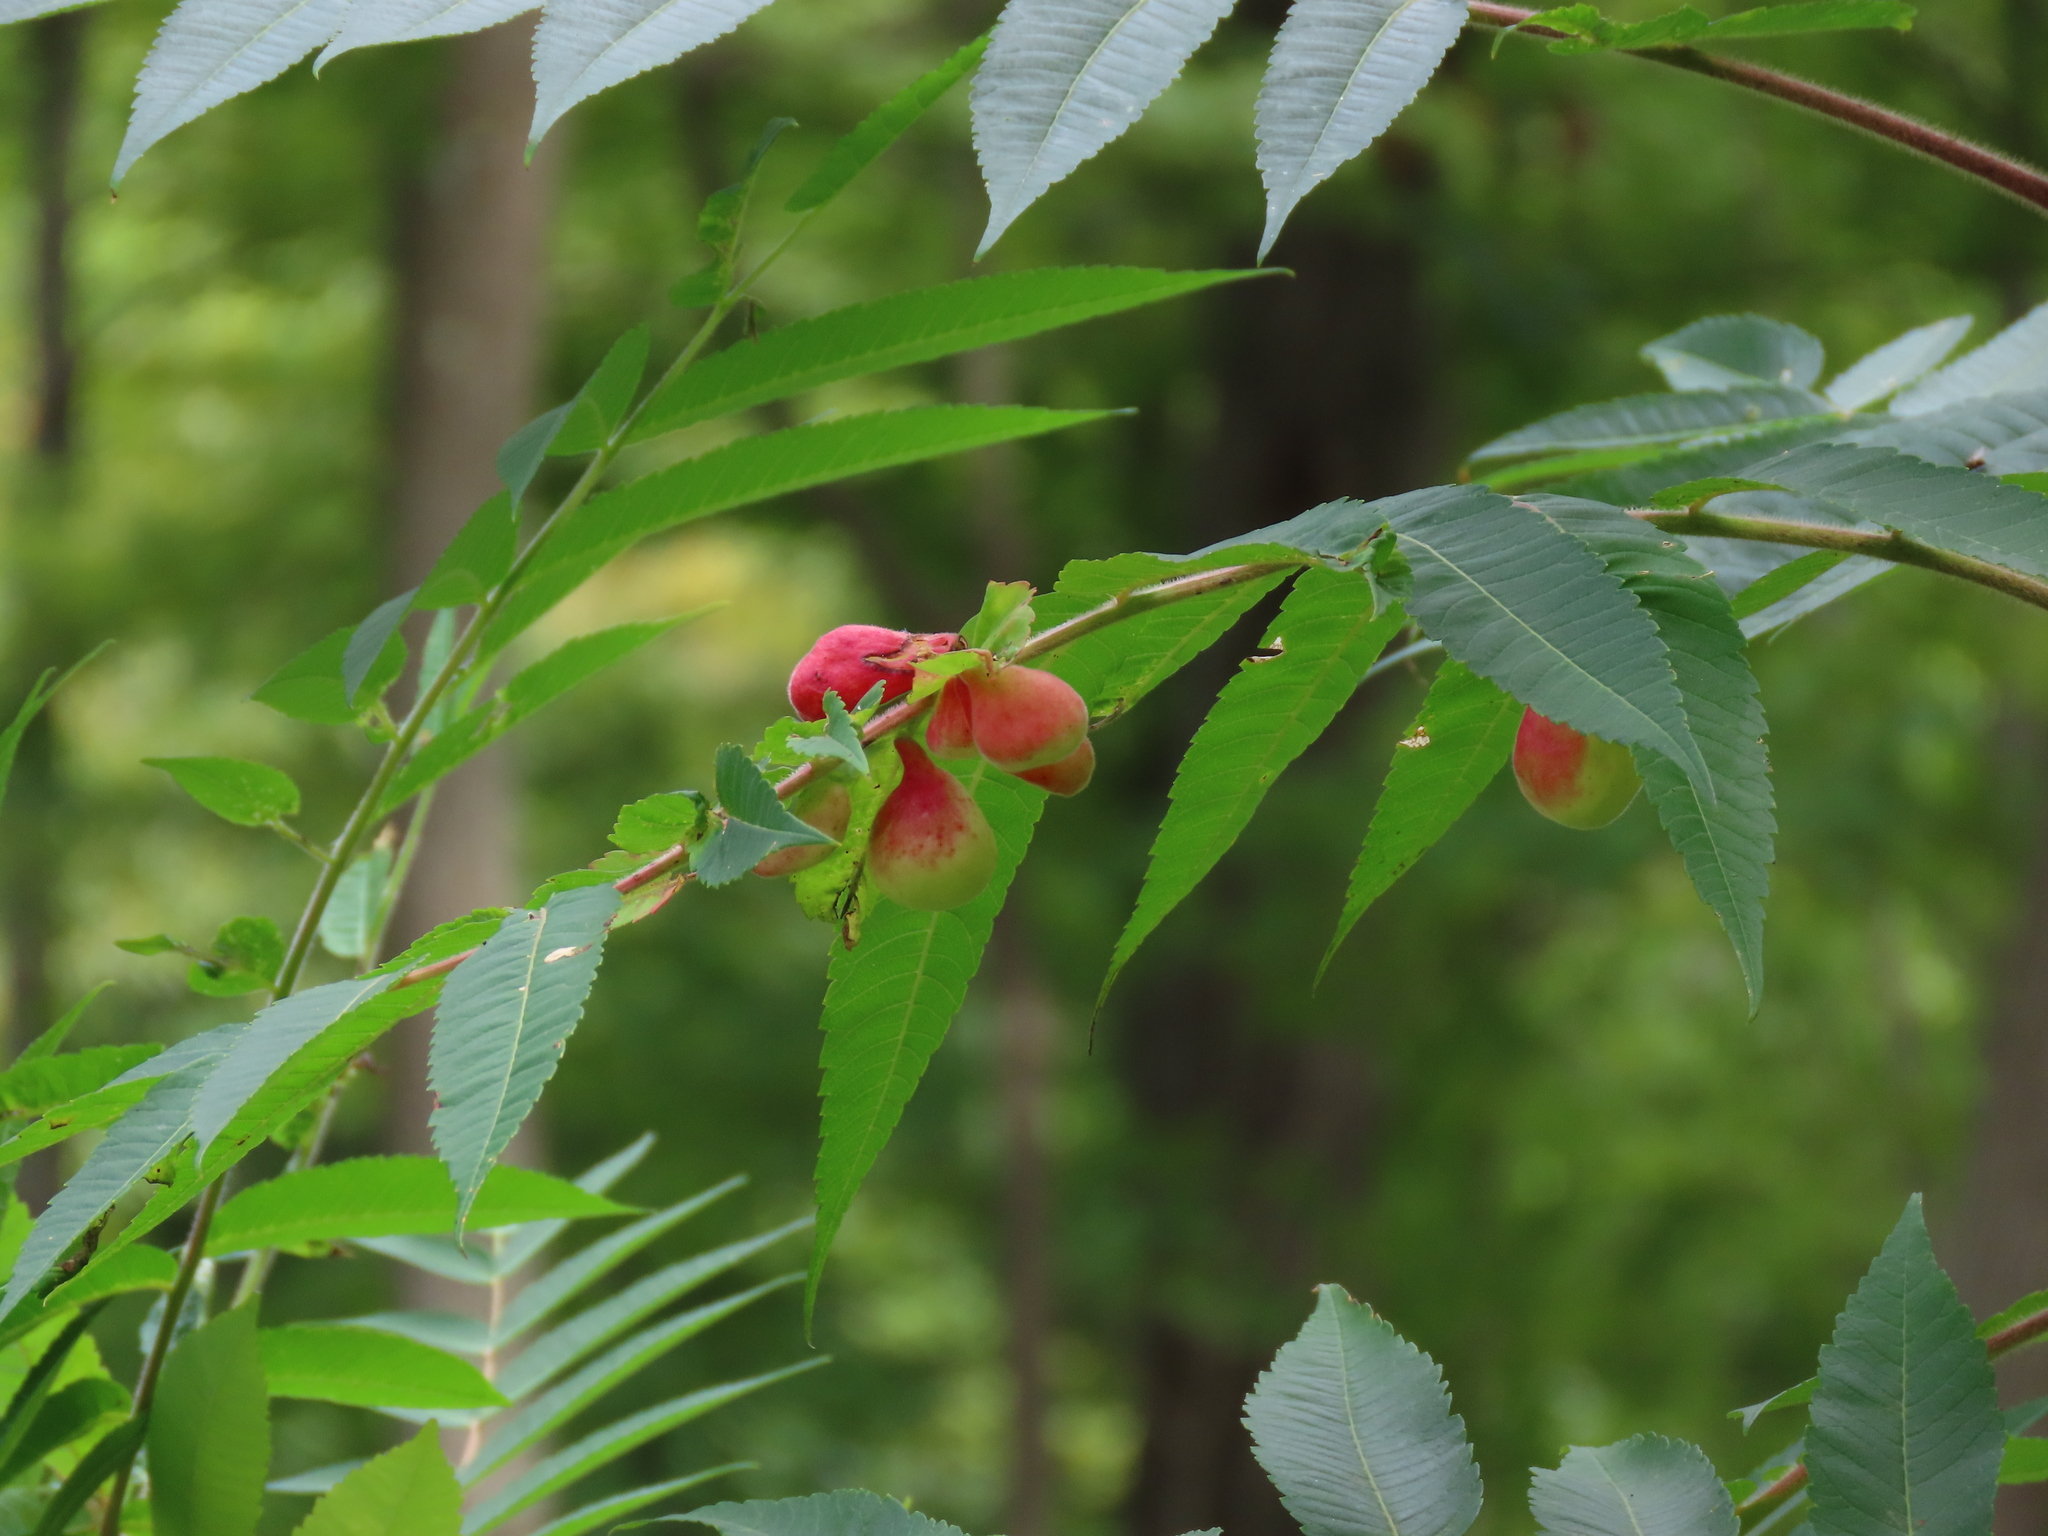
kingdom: Animalia
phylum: Arthropoda
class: Insecta
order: Hemiptera
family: Aphididae
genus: Melaphis
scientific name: Melaphis rhois
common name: Sumac gall aphid
